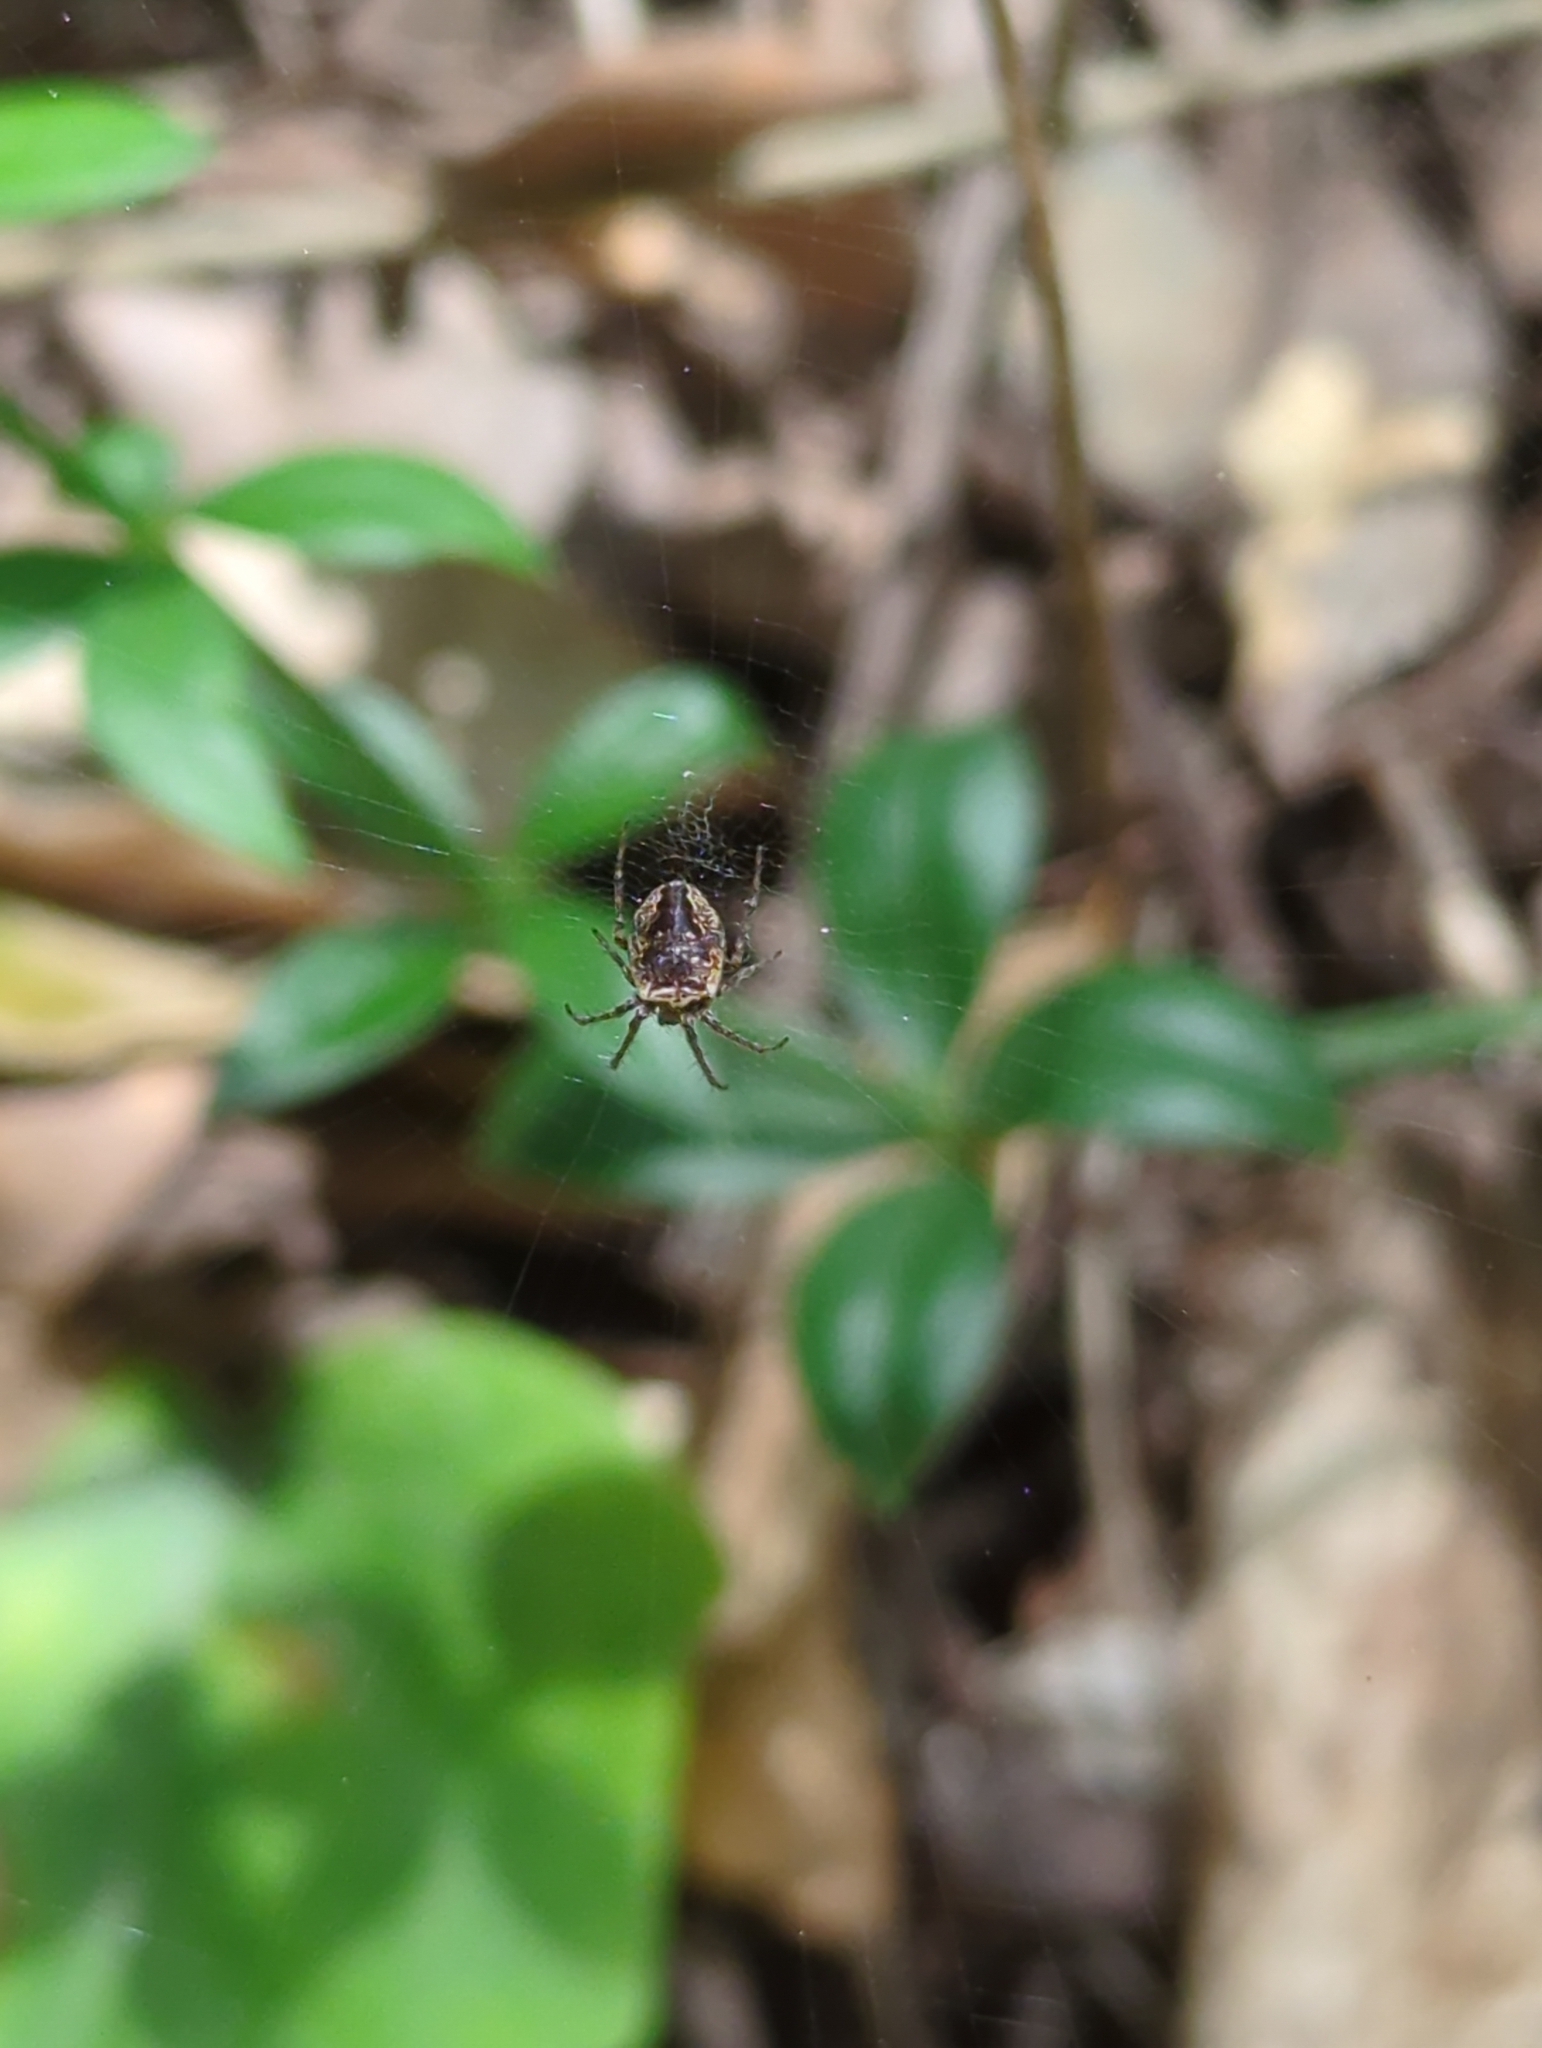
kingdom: Animalia
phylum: Arthropoda
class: Arachnida
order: Araneae
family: Araneidae
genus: Zilla
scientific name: Zilla diodia
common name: Zilla diodia
